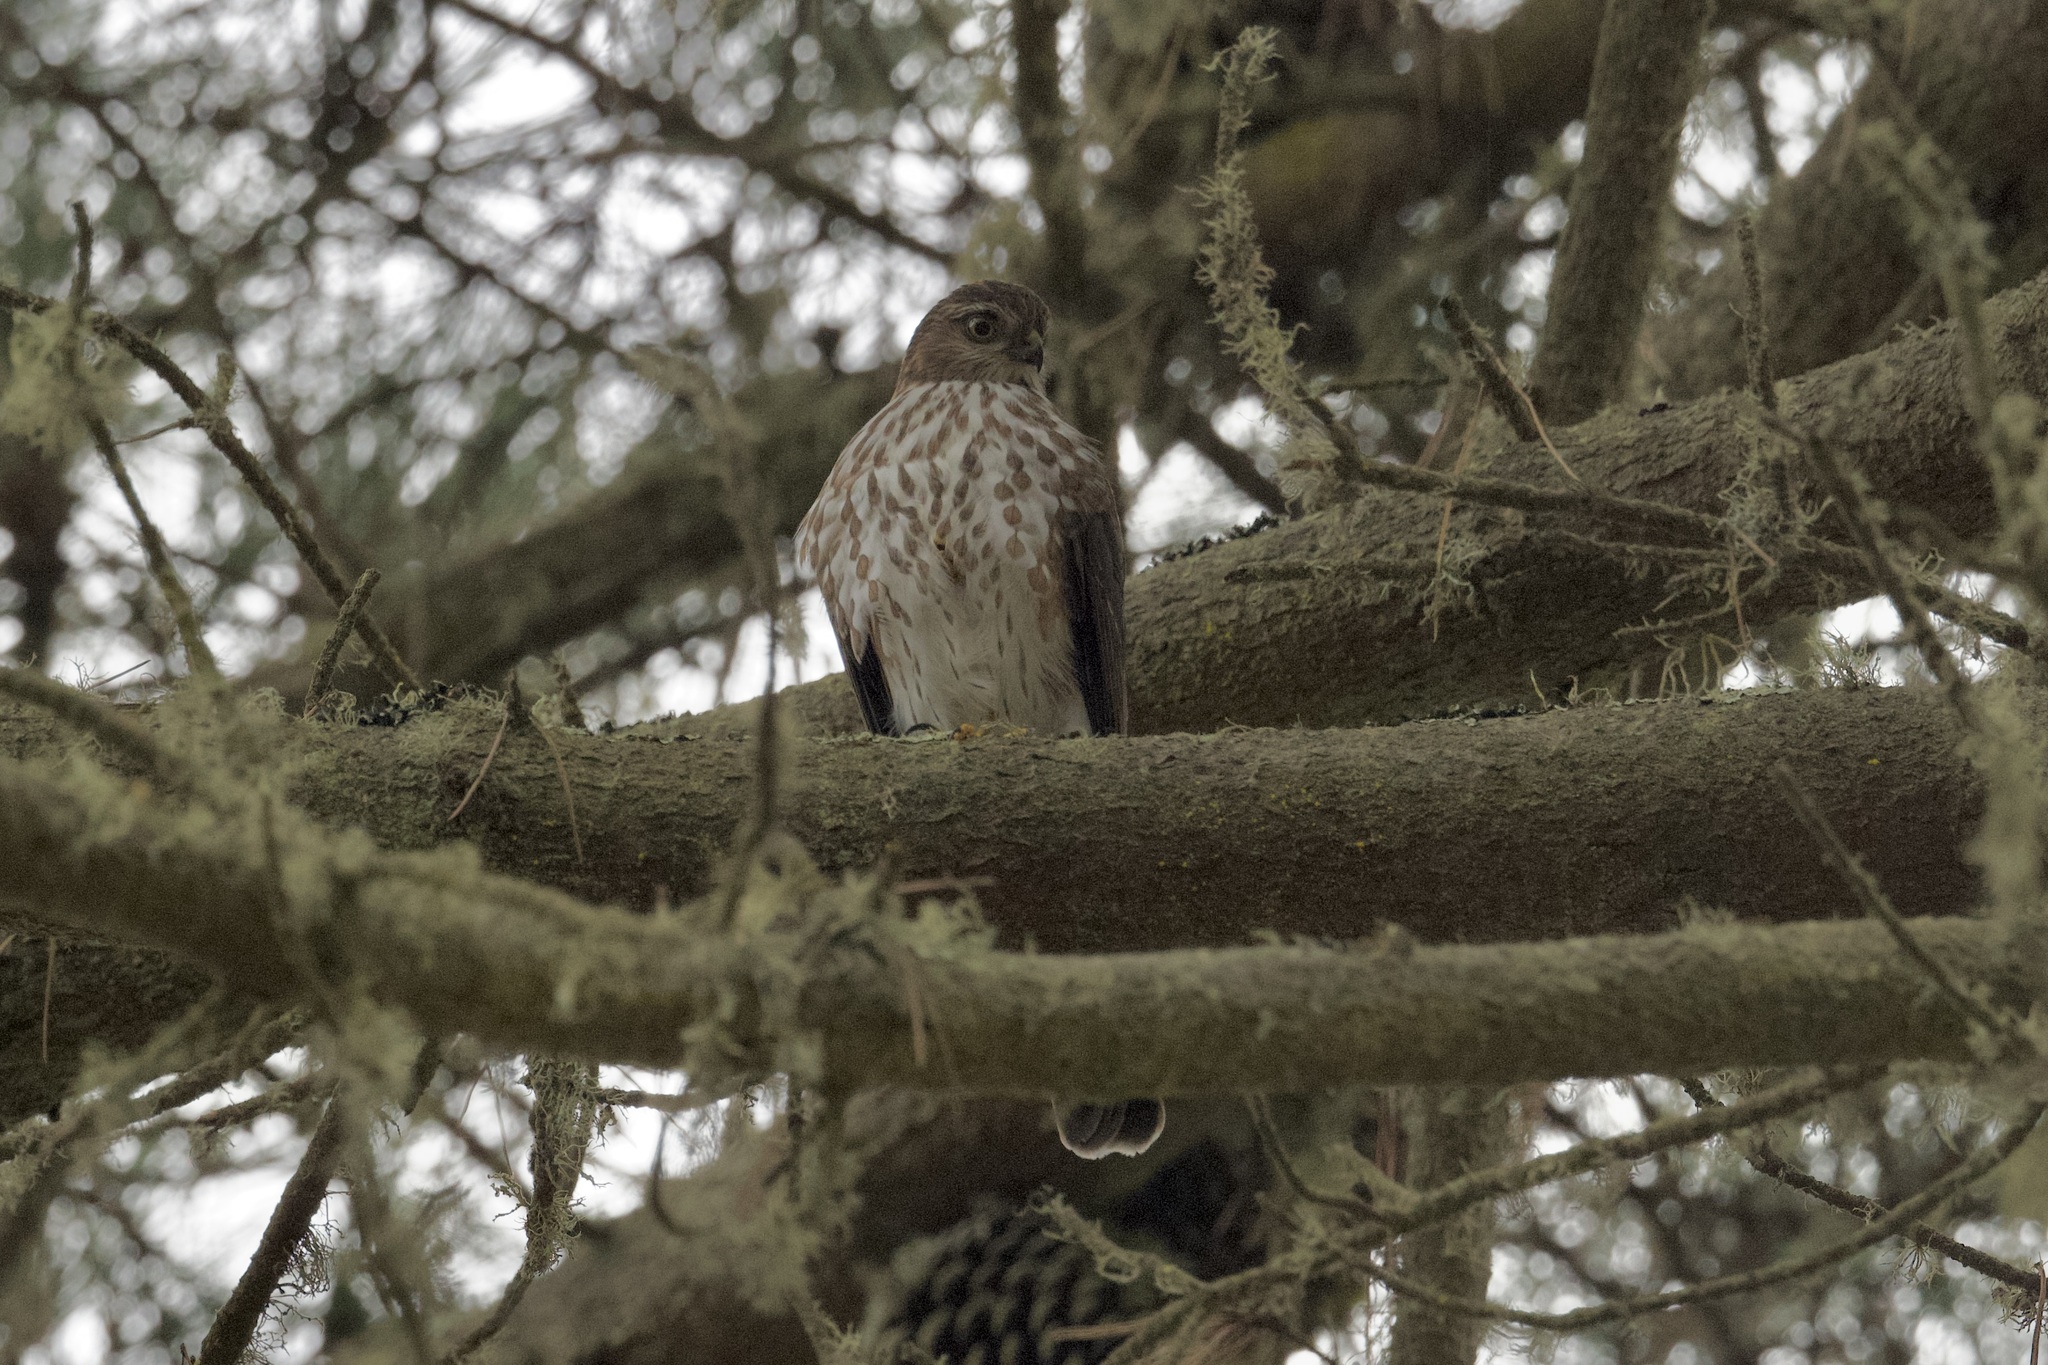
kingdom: Animalia
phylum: Chordata
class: Aves
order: Accipitriformes
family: Accipitridae
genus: Accipiter
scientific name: Accipiter striatus
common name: Sharp-shinned hawk
